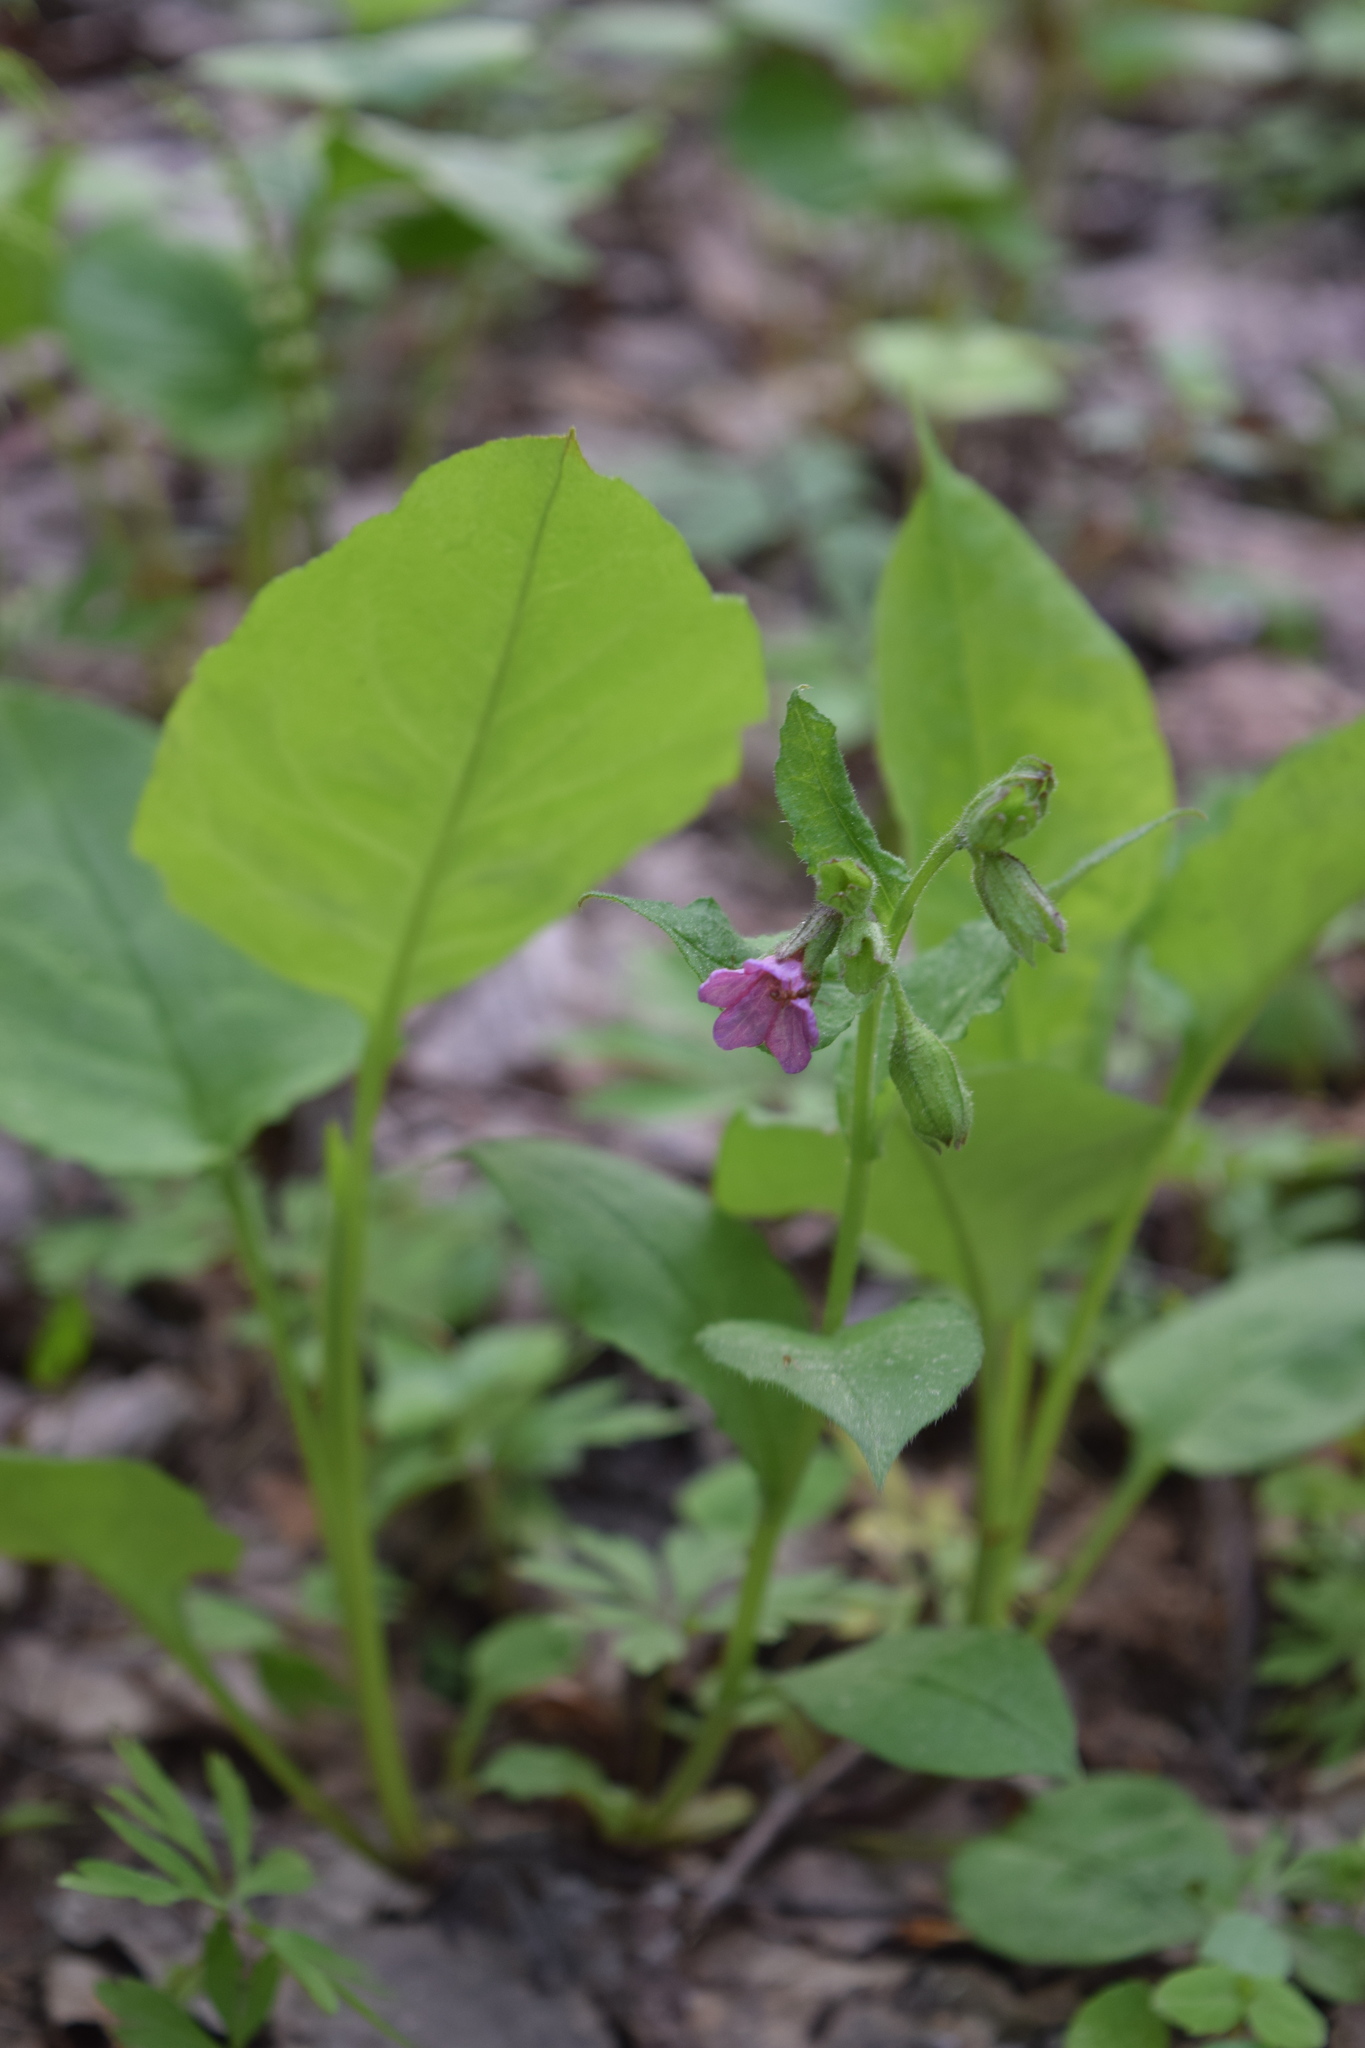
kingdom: Plantae
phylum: Tracheophyta
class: Magnoliopsida
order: Boraginales
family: Boraginaceae
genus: Pulmonaria
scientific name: Pulmonaria obscura
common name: Suffolk lungwort
